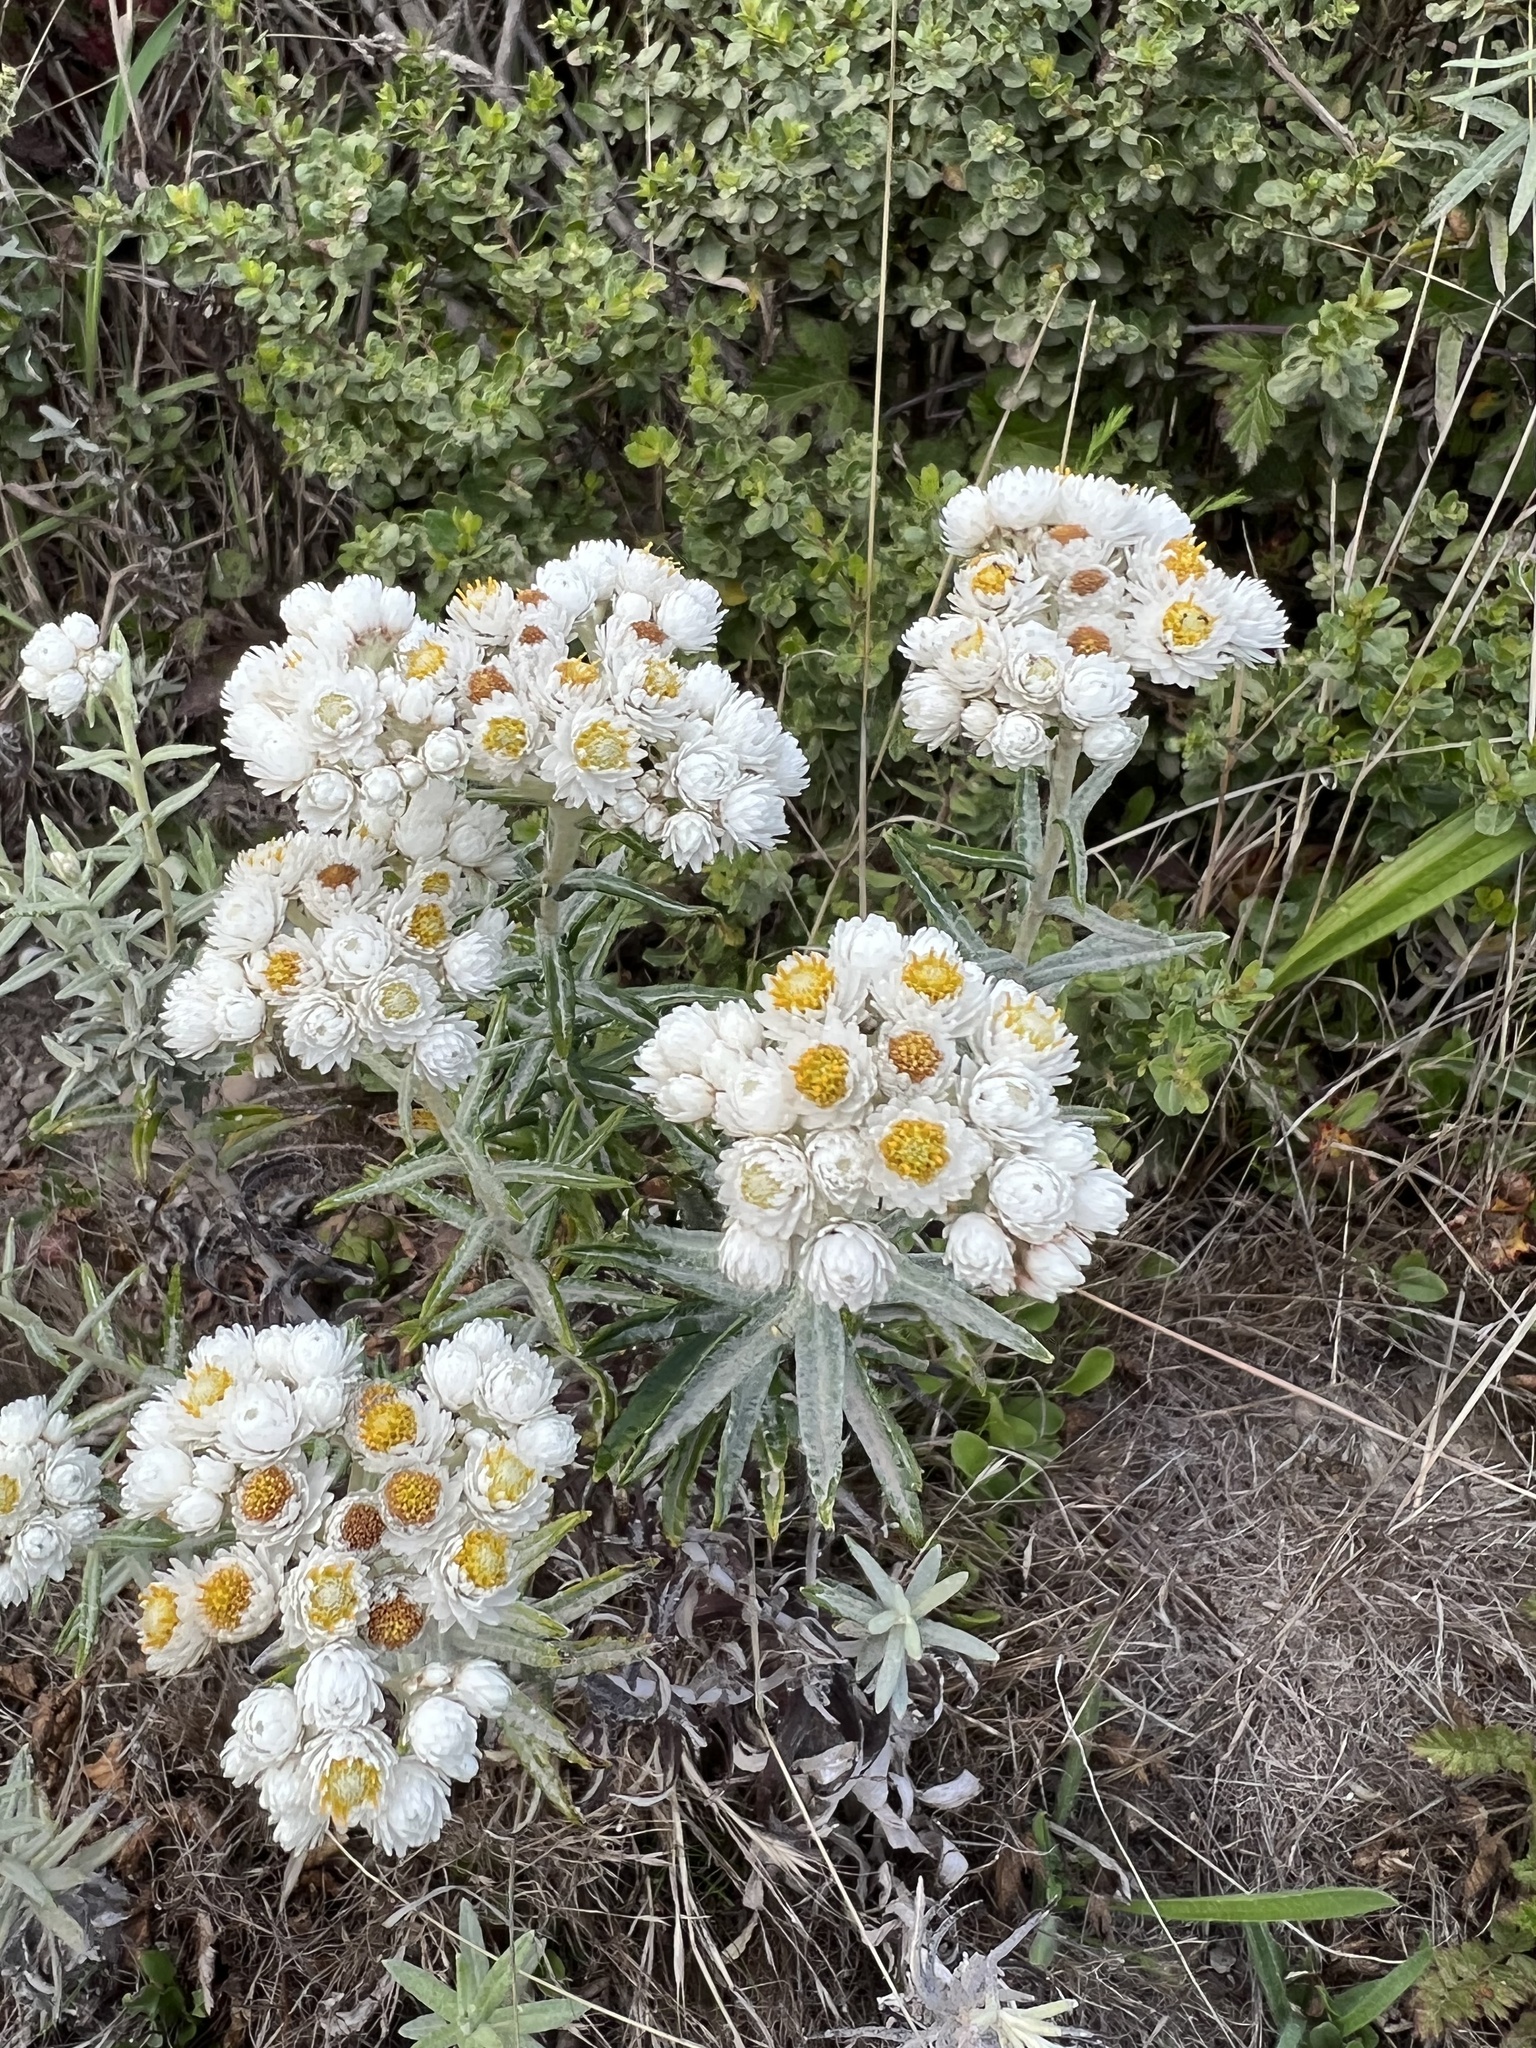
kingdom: Plantae
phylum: Tracheophyta
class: Magnoliopsida
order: Asterales
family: Asteraceae
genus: Anaphalis
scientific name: Anaphalis margaritacea
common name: Pearly everlasting
